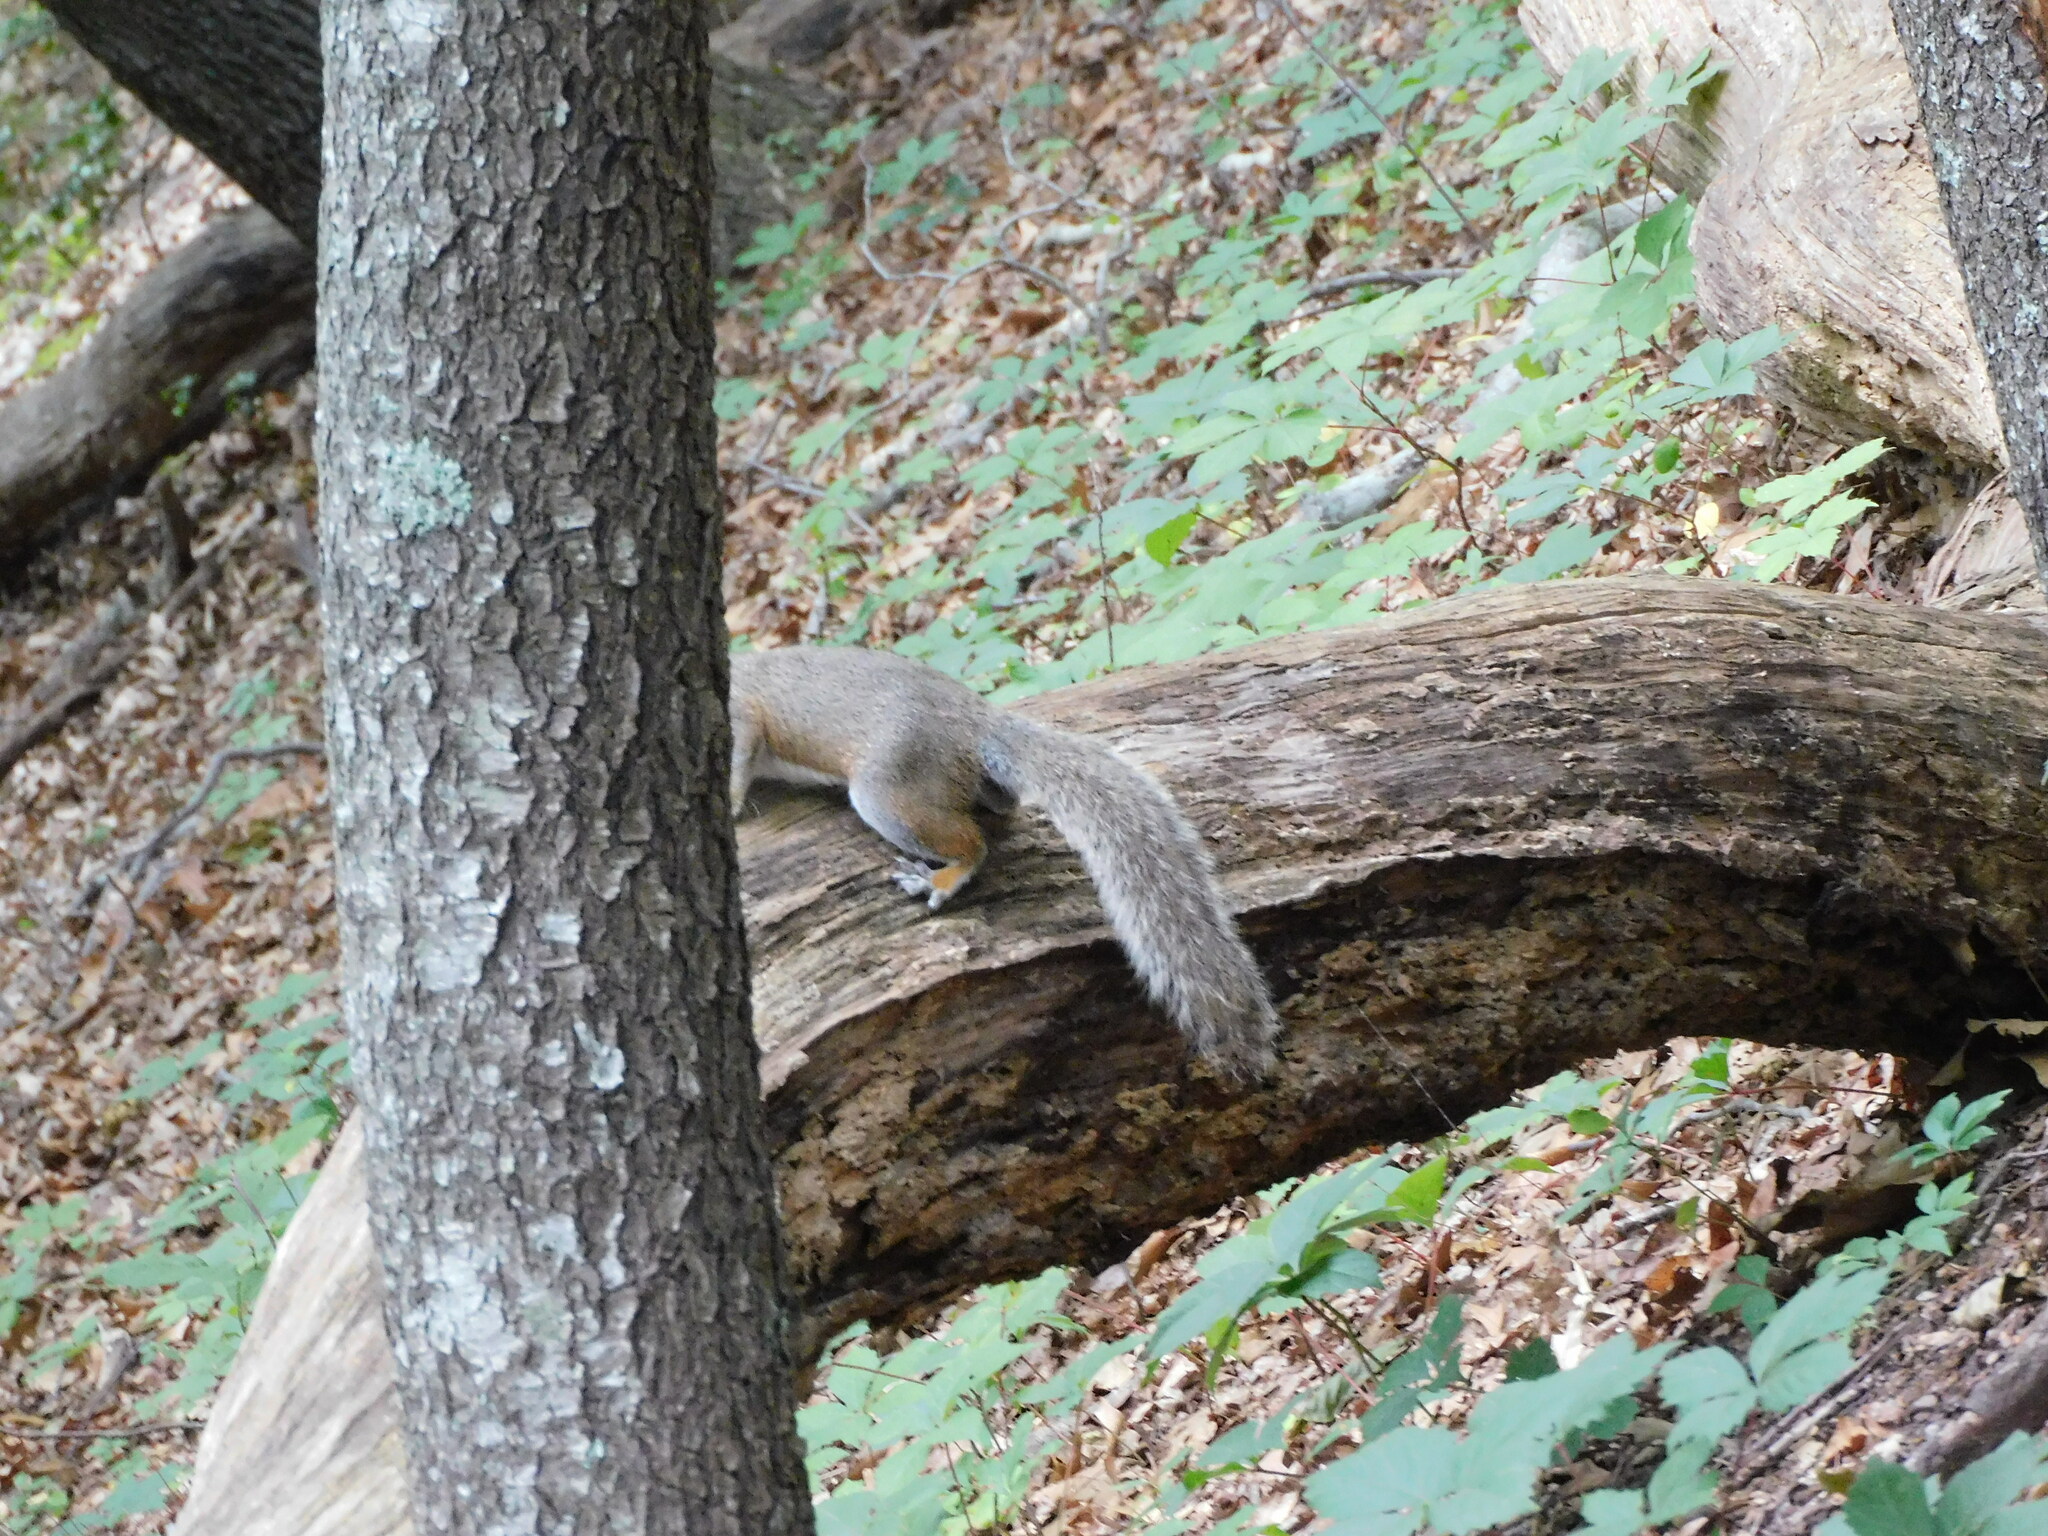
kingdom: Animalia
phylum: Chordata
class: Mammalia
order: Rodentia
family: Sciuridae
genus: Sciurus
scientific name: Sciurus carolinensis
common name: Eastern gray squirrel
